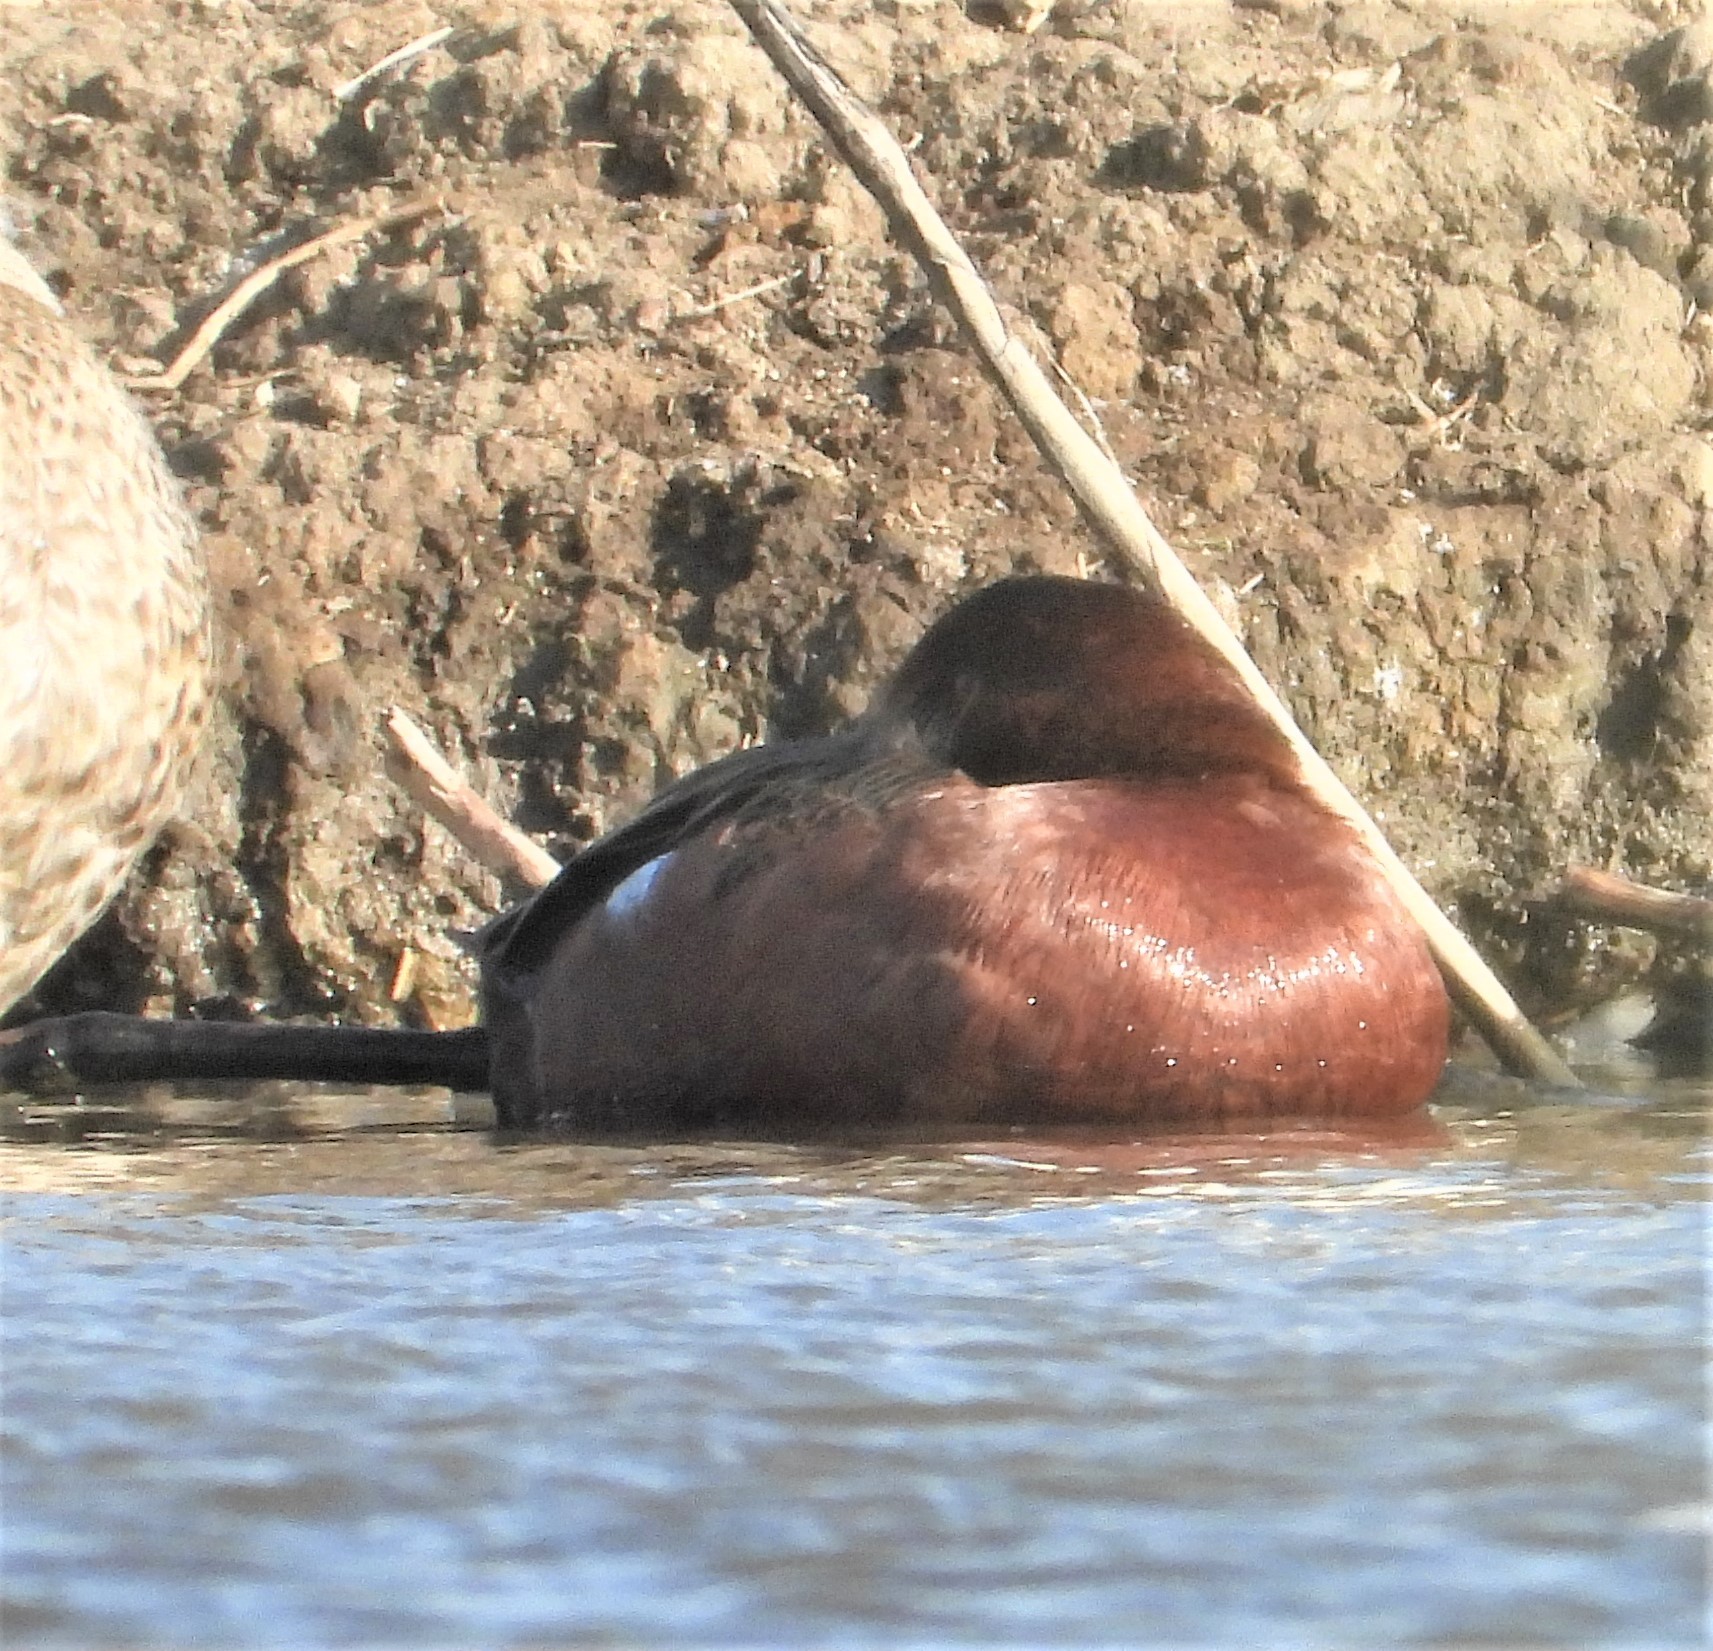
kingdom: Animalia
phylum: Chordata
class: Aves
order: Anseriformes
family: Anatidae
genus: Spatula
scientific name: Spatula cyanoptera
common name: Cinnamon teal
